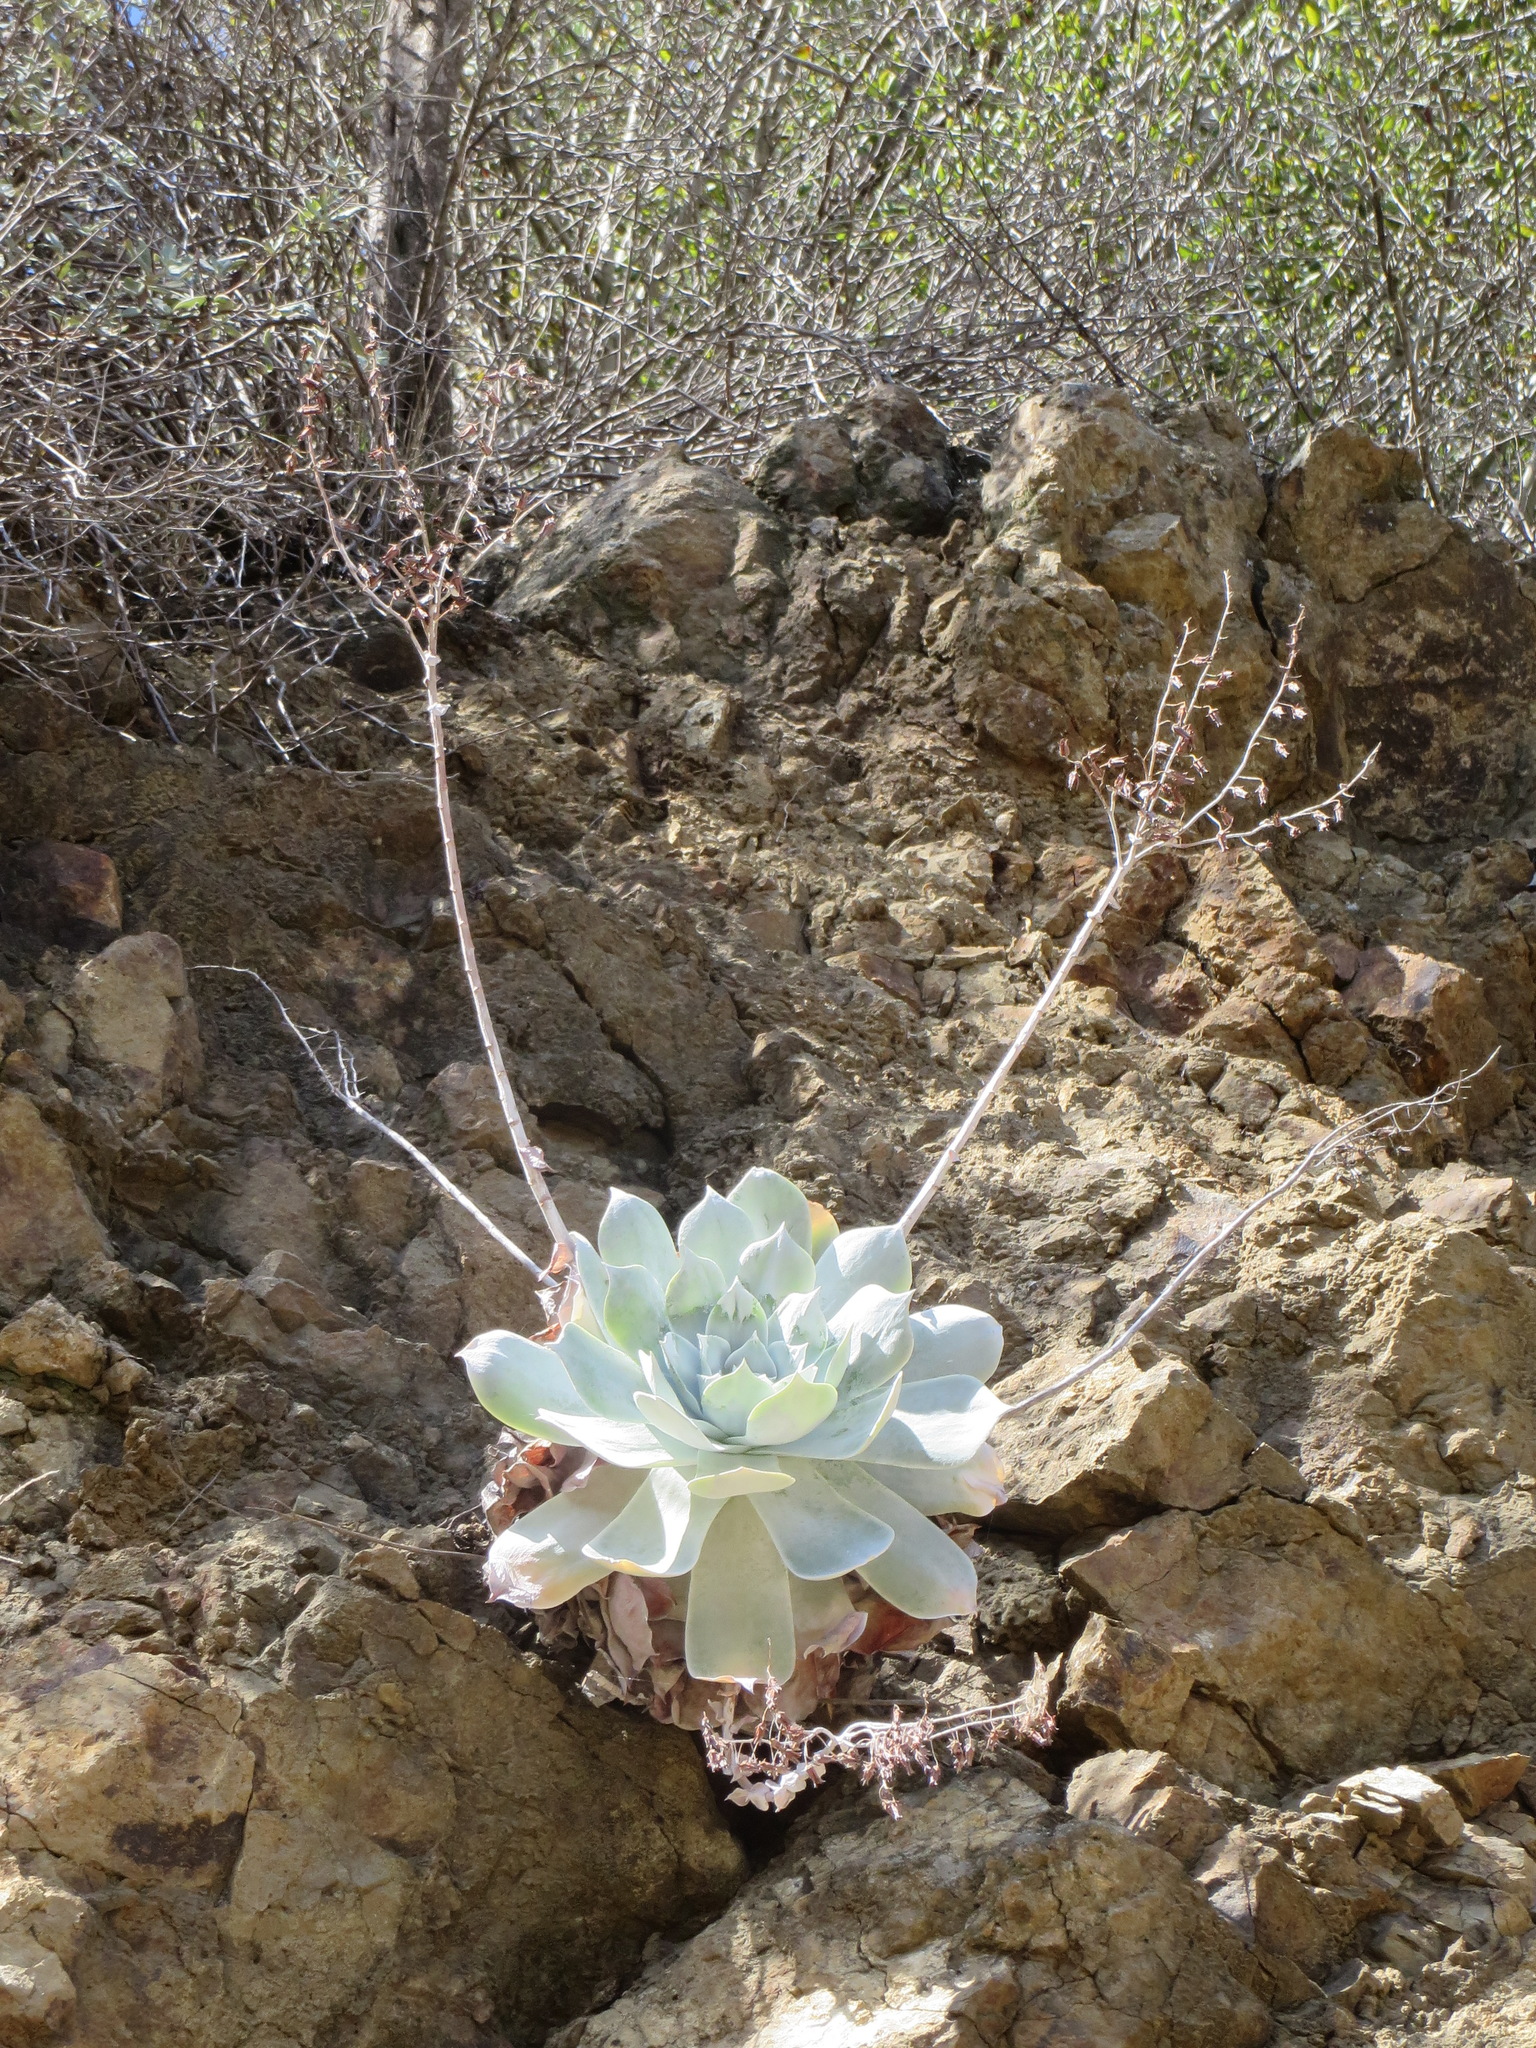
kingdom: Plantae
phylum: Tracheophyta
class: Magnoliopsida
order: Saxifragales
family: Crassulaceae
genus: Dudleya
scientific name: Dudleya pulverulenta
